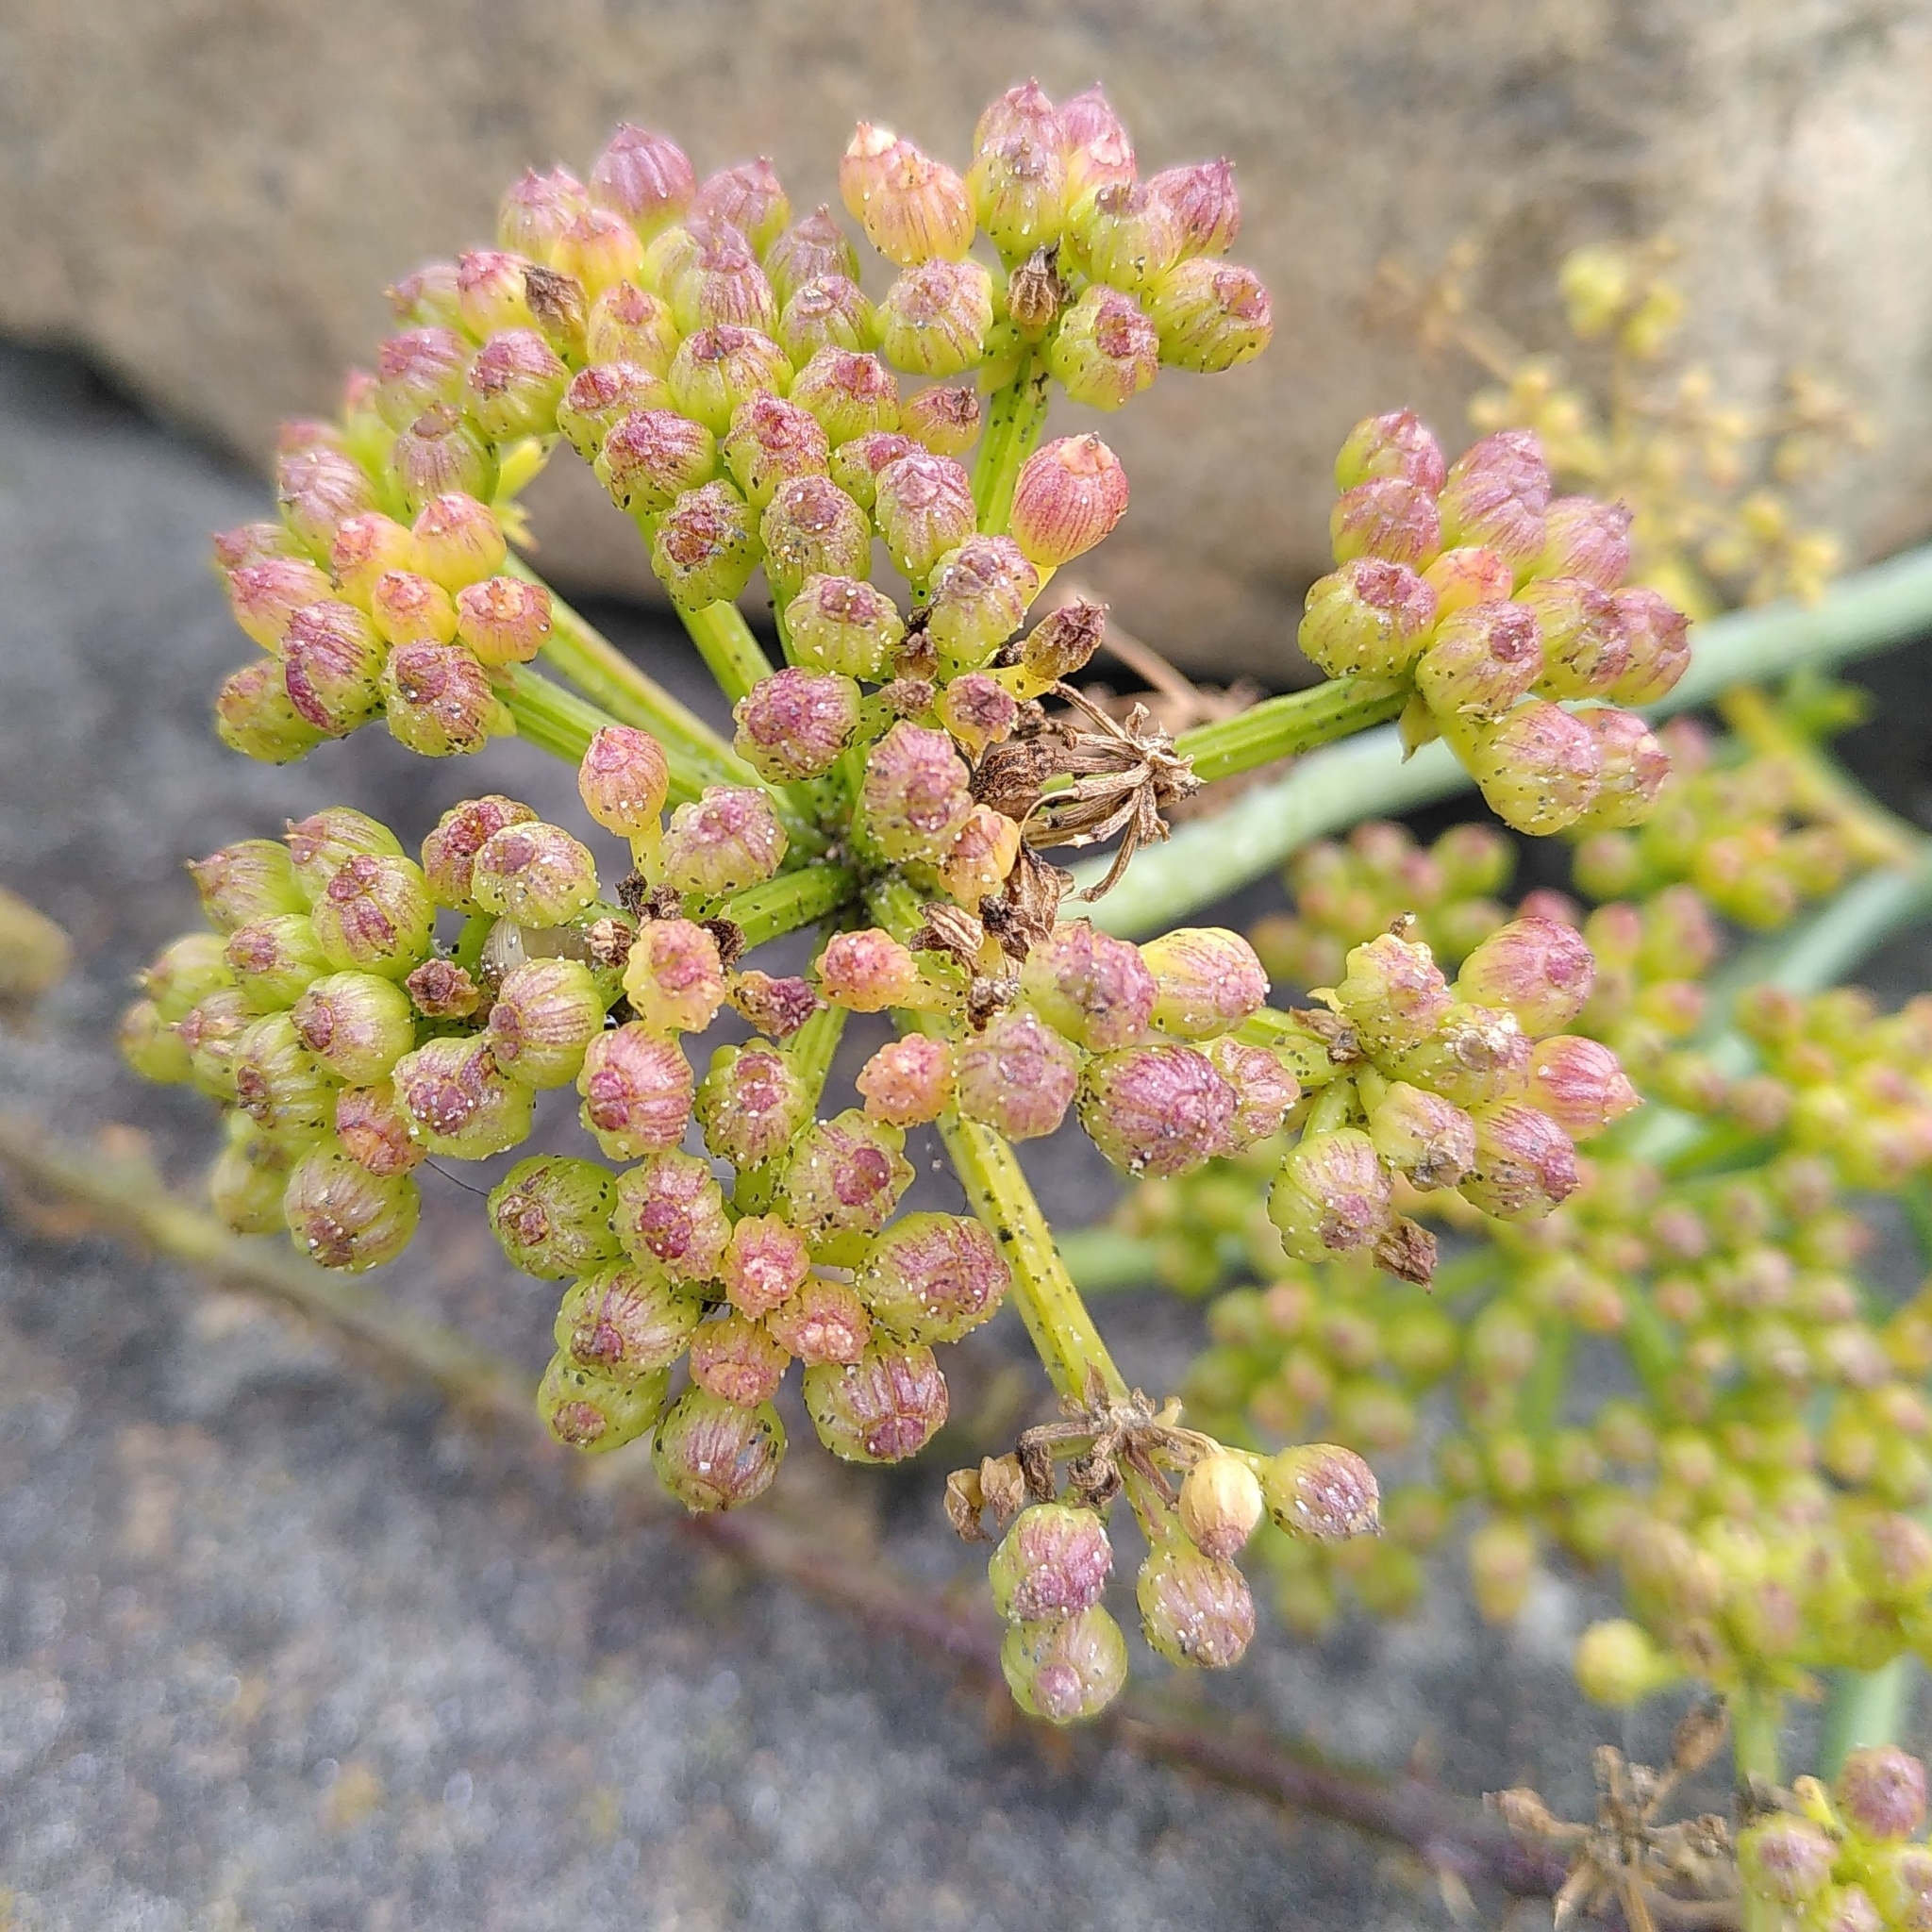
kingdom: Plantae
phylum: Tracheophyta
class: Magnoliopsida
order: Apiales
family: Apiaceae
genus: Crithmum
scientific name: Crithmum maritimum
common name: Rock samphire
